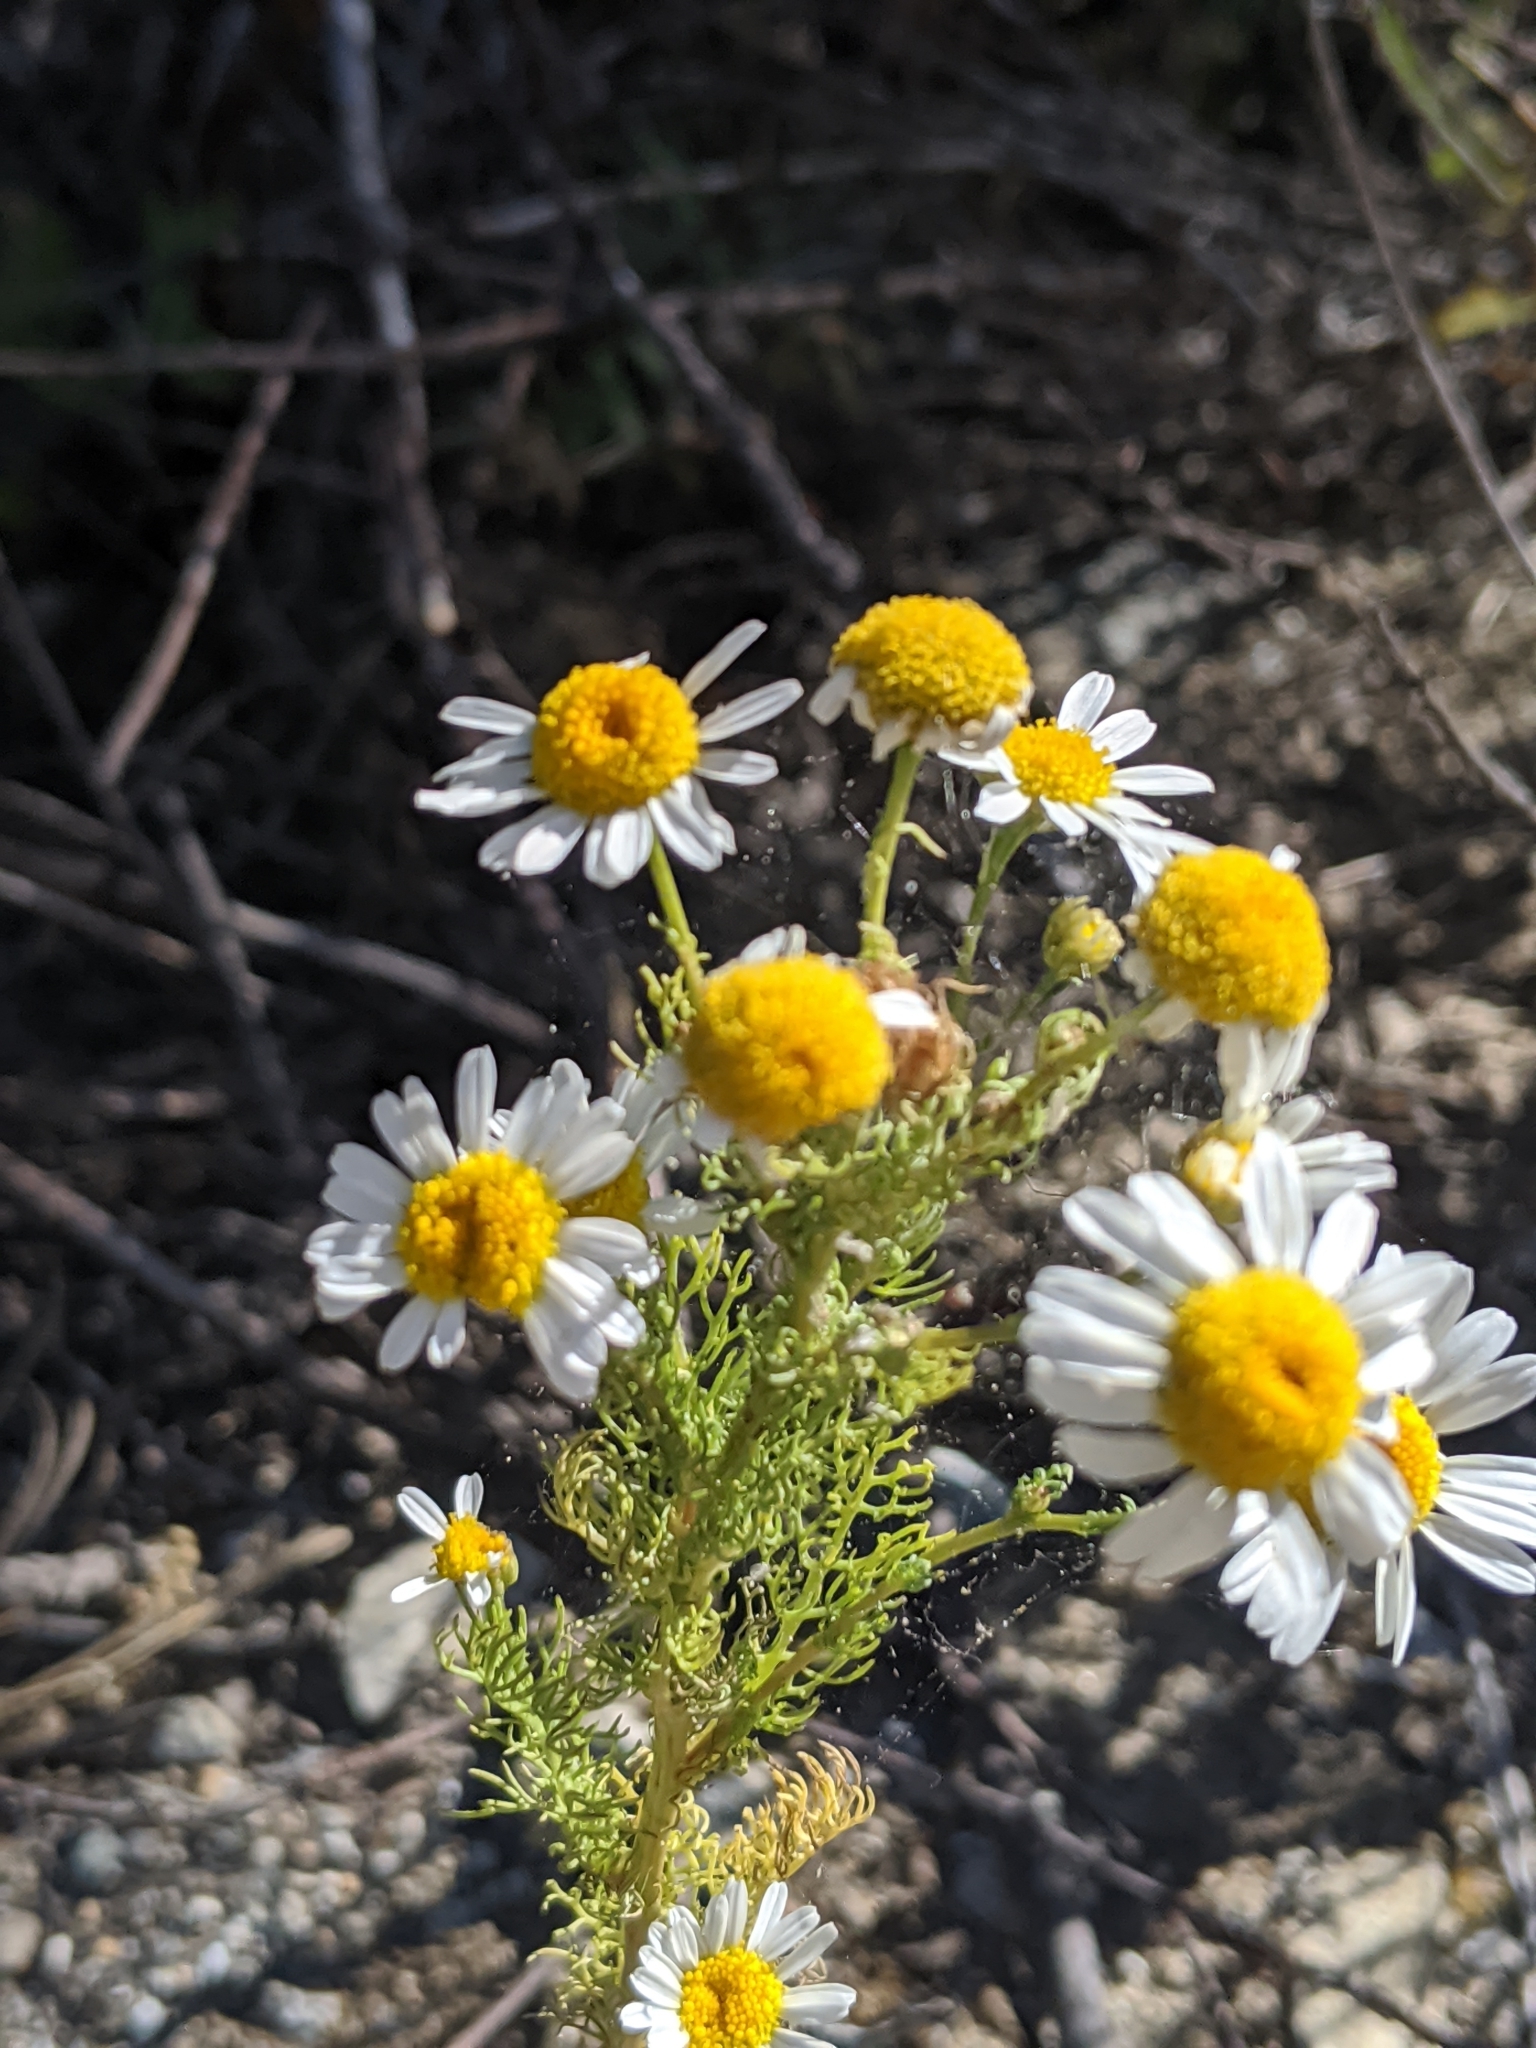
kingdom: Plantae
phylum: Tracheophyta
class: Magnoliopsida
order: Asterales
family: Asteraceae
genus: Tripleurospermum
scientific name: Tripleurospermum inodorum
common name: Scentless mayweed
